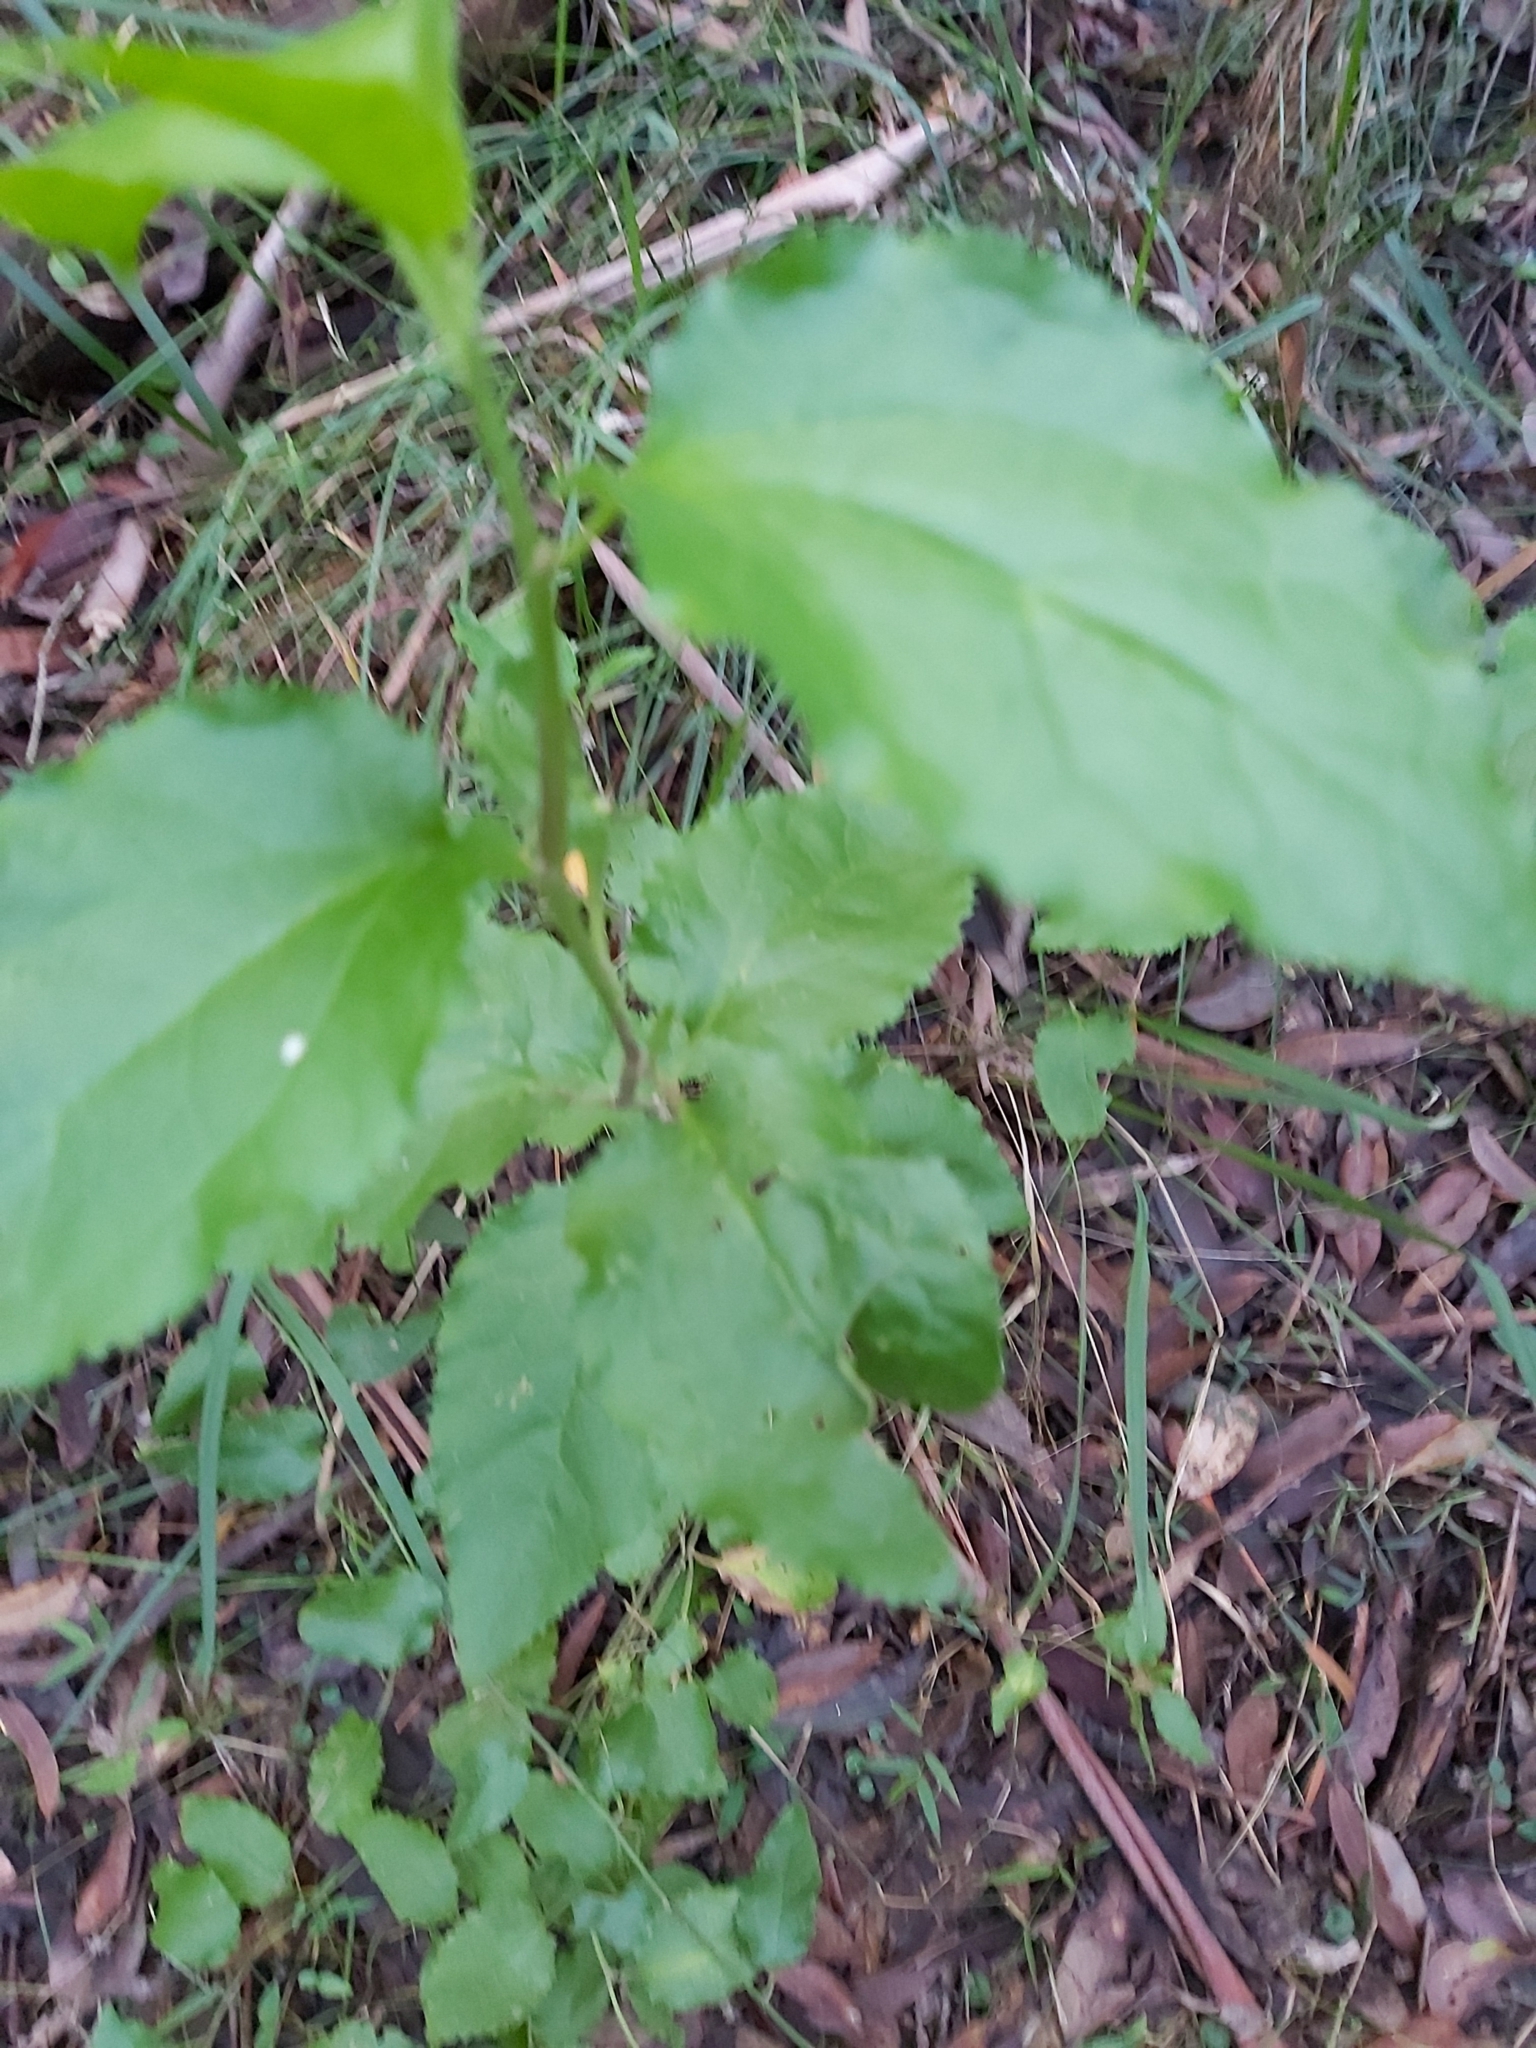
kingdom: Plantae
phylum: Tracheophyta
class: Magnoliopsida
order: Asterales
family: Goodeniaceae
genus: Goodenia
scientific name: Goodenia ovata
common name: Hop goodenia
